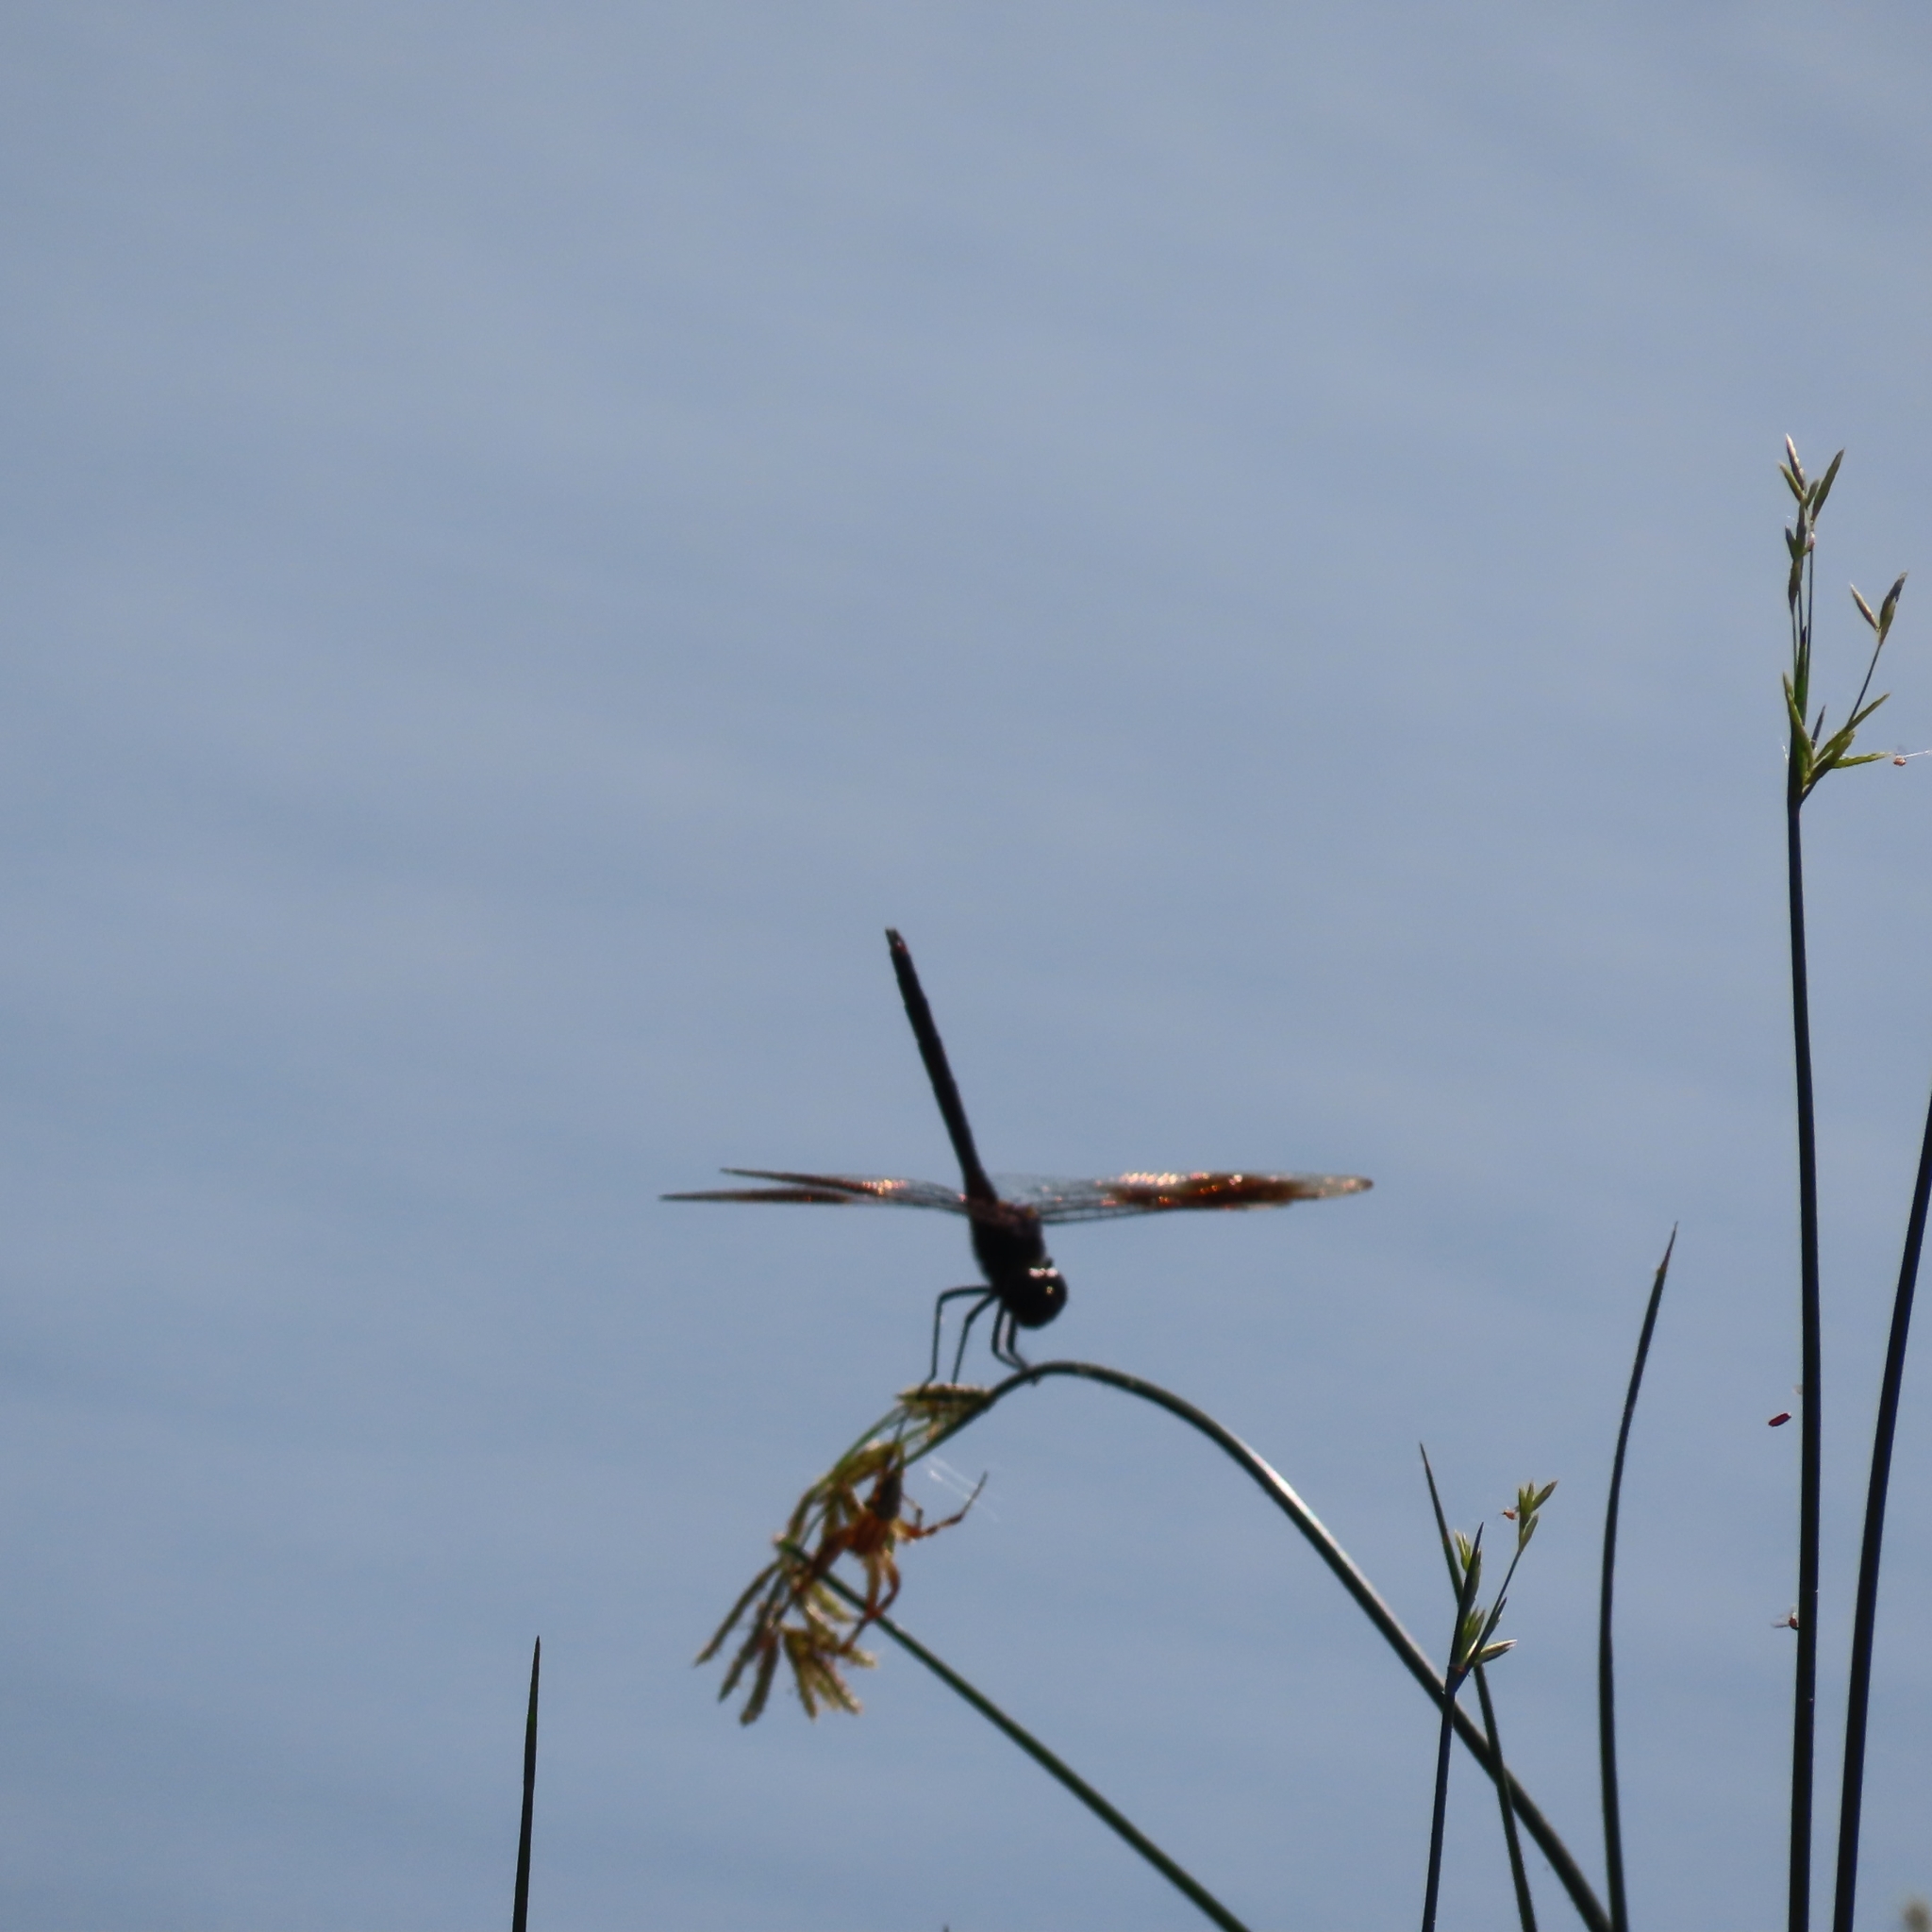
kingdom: Animalia
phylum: Arthropoda
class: Insecta
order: Odonata
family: Libellulidae
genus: Brachymesia
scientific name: Brachymesia gravida
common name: Four-spotted pennant
